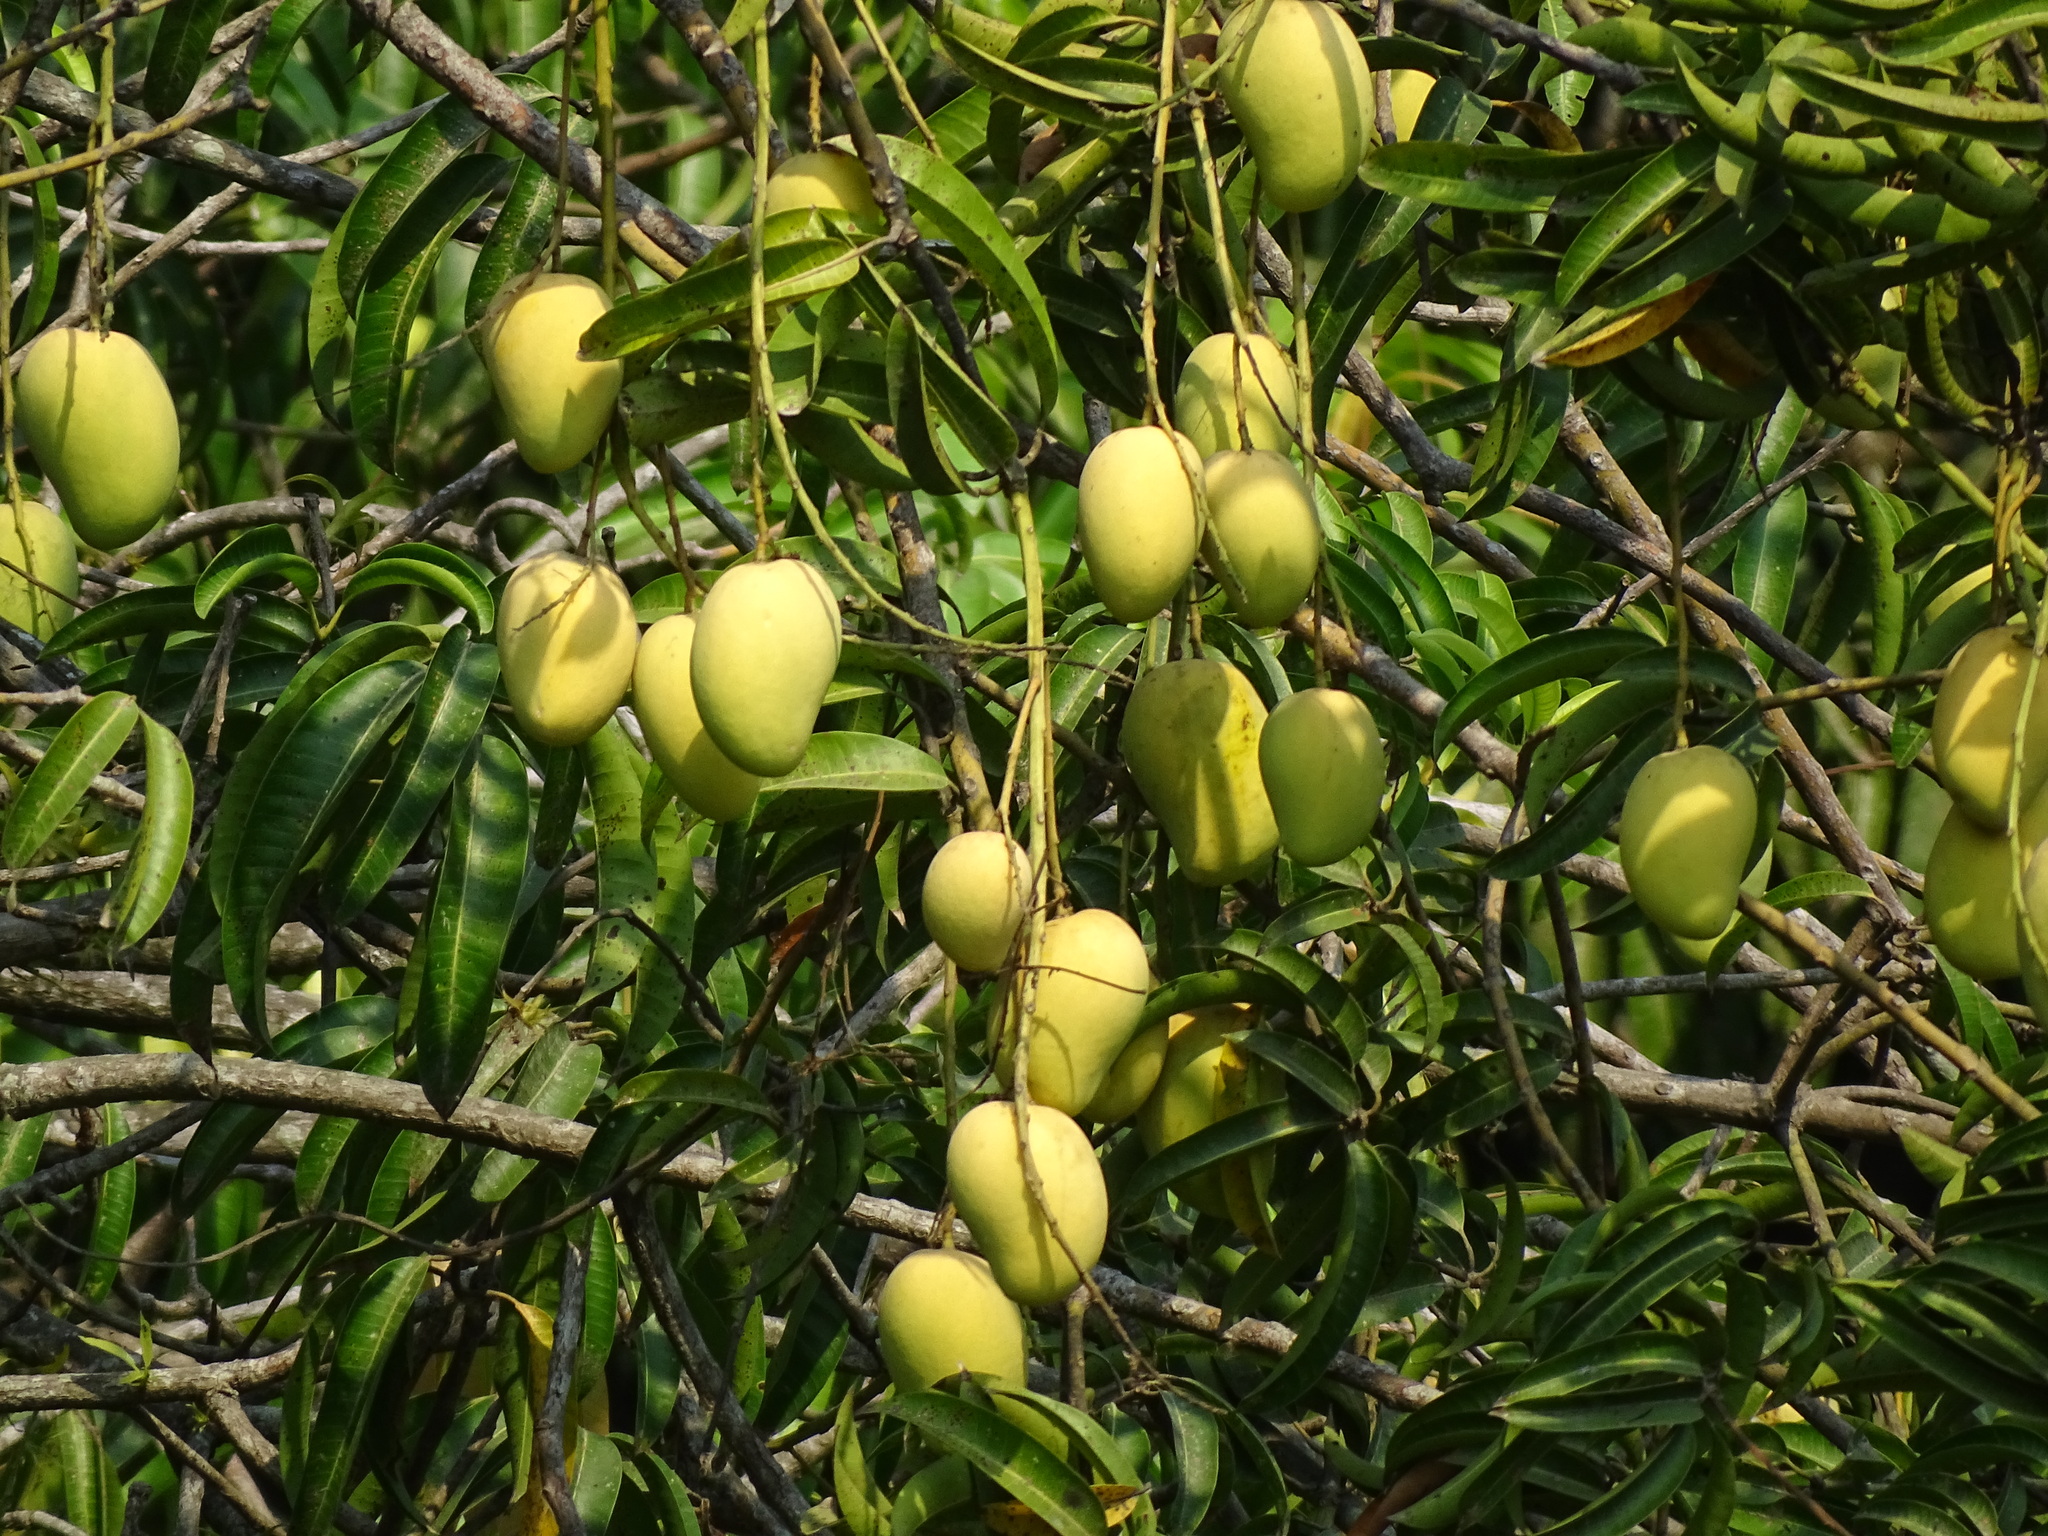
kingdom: Plantae
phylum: Tracheophyta
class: Magnoliopsida
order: Sapindales
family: Anacardiaceae
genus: Mangifera
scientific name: Mangifera indica
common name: Mango
